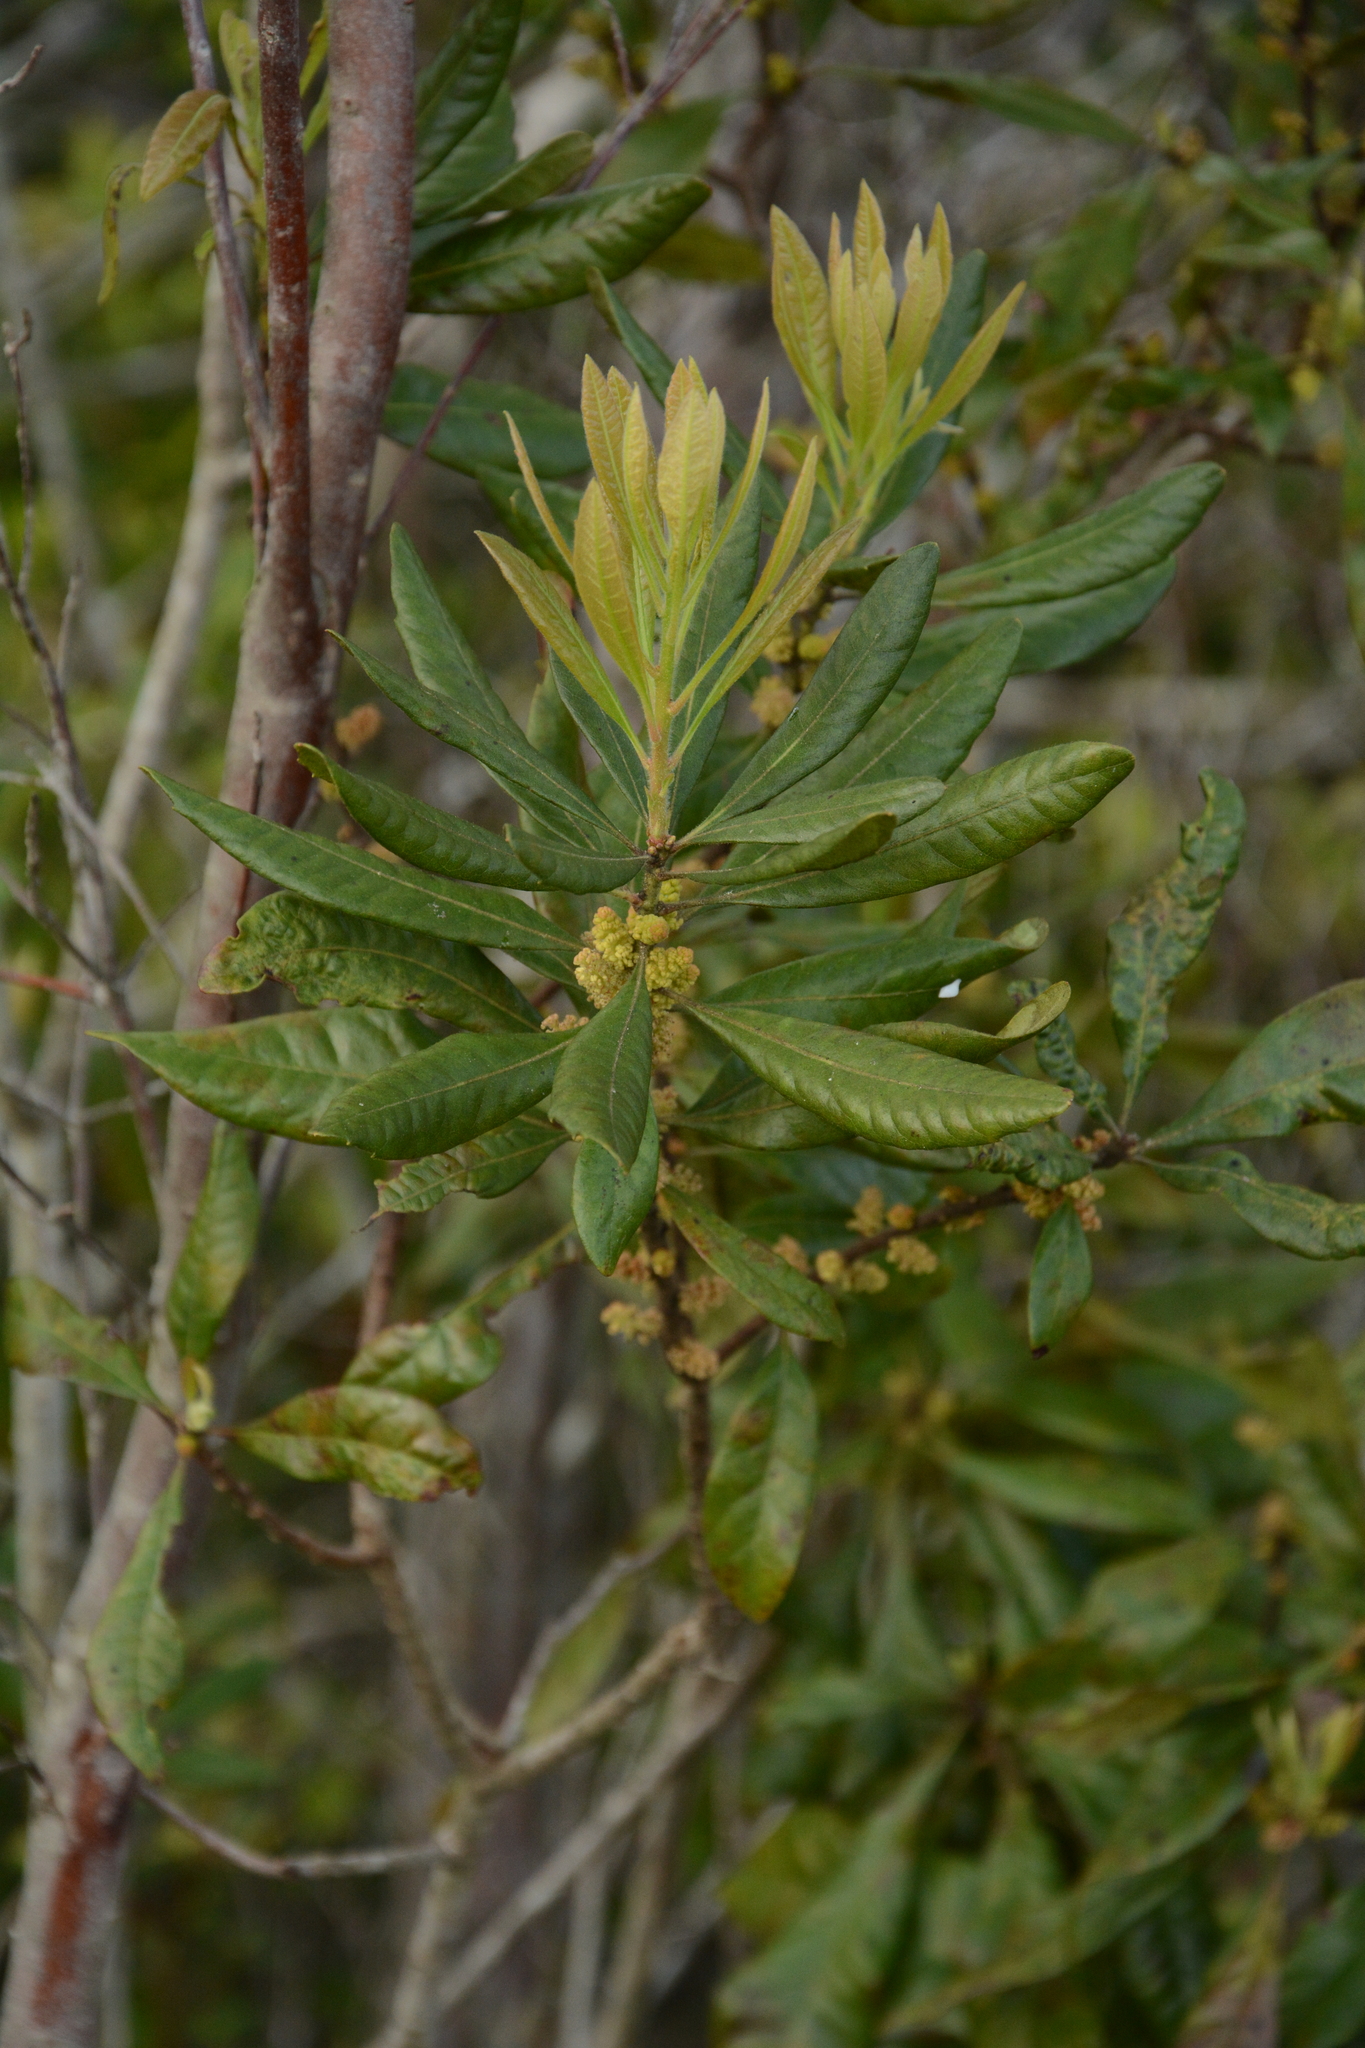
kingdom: Plantae
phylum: Tracheophyta
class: Magnoliopsida
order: Fagales
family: Myricaceae
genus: Morella
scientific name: Morella caroliniensis
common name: Evergreen bayberry
